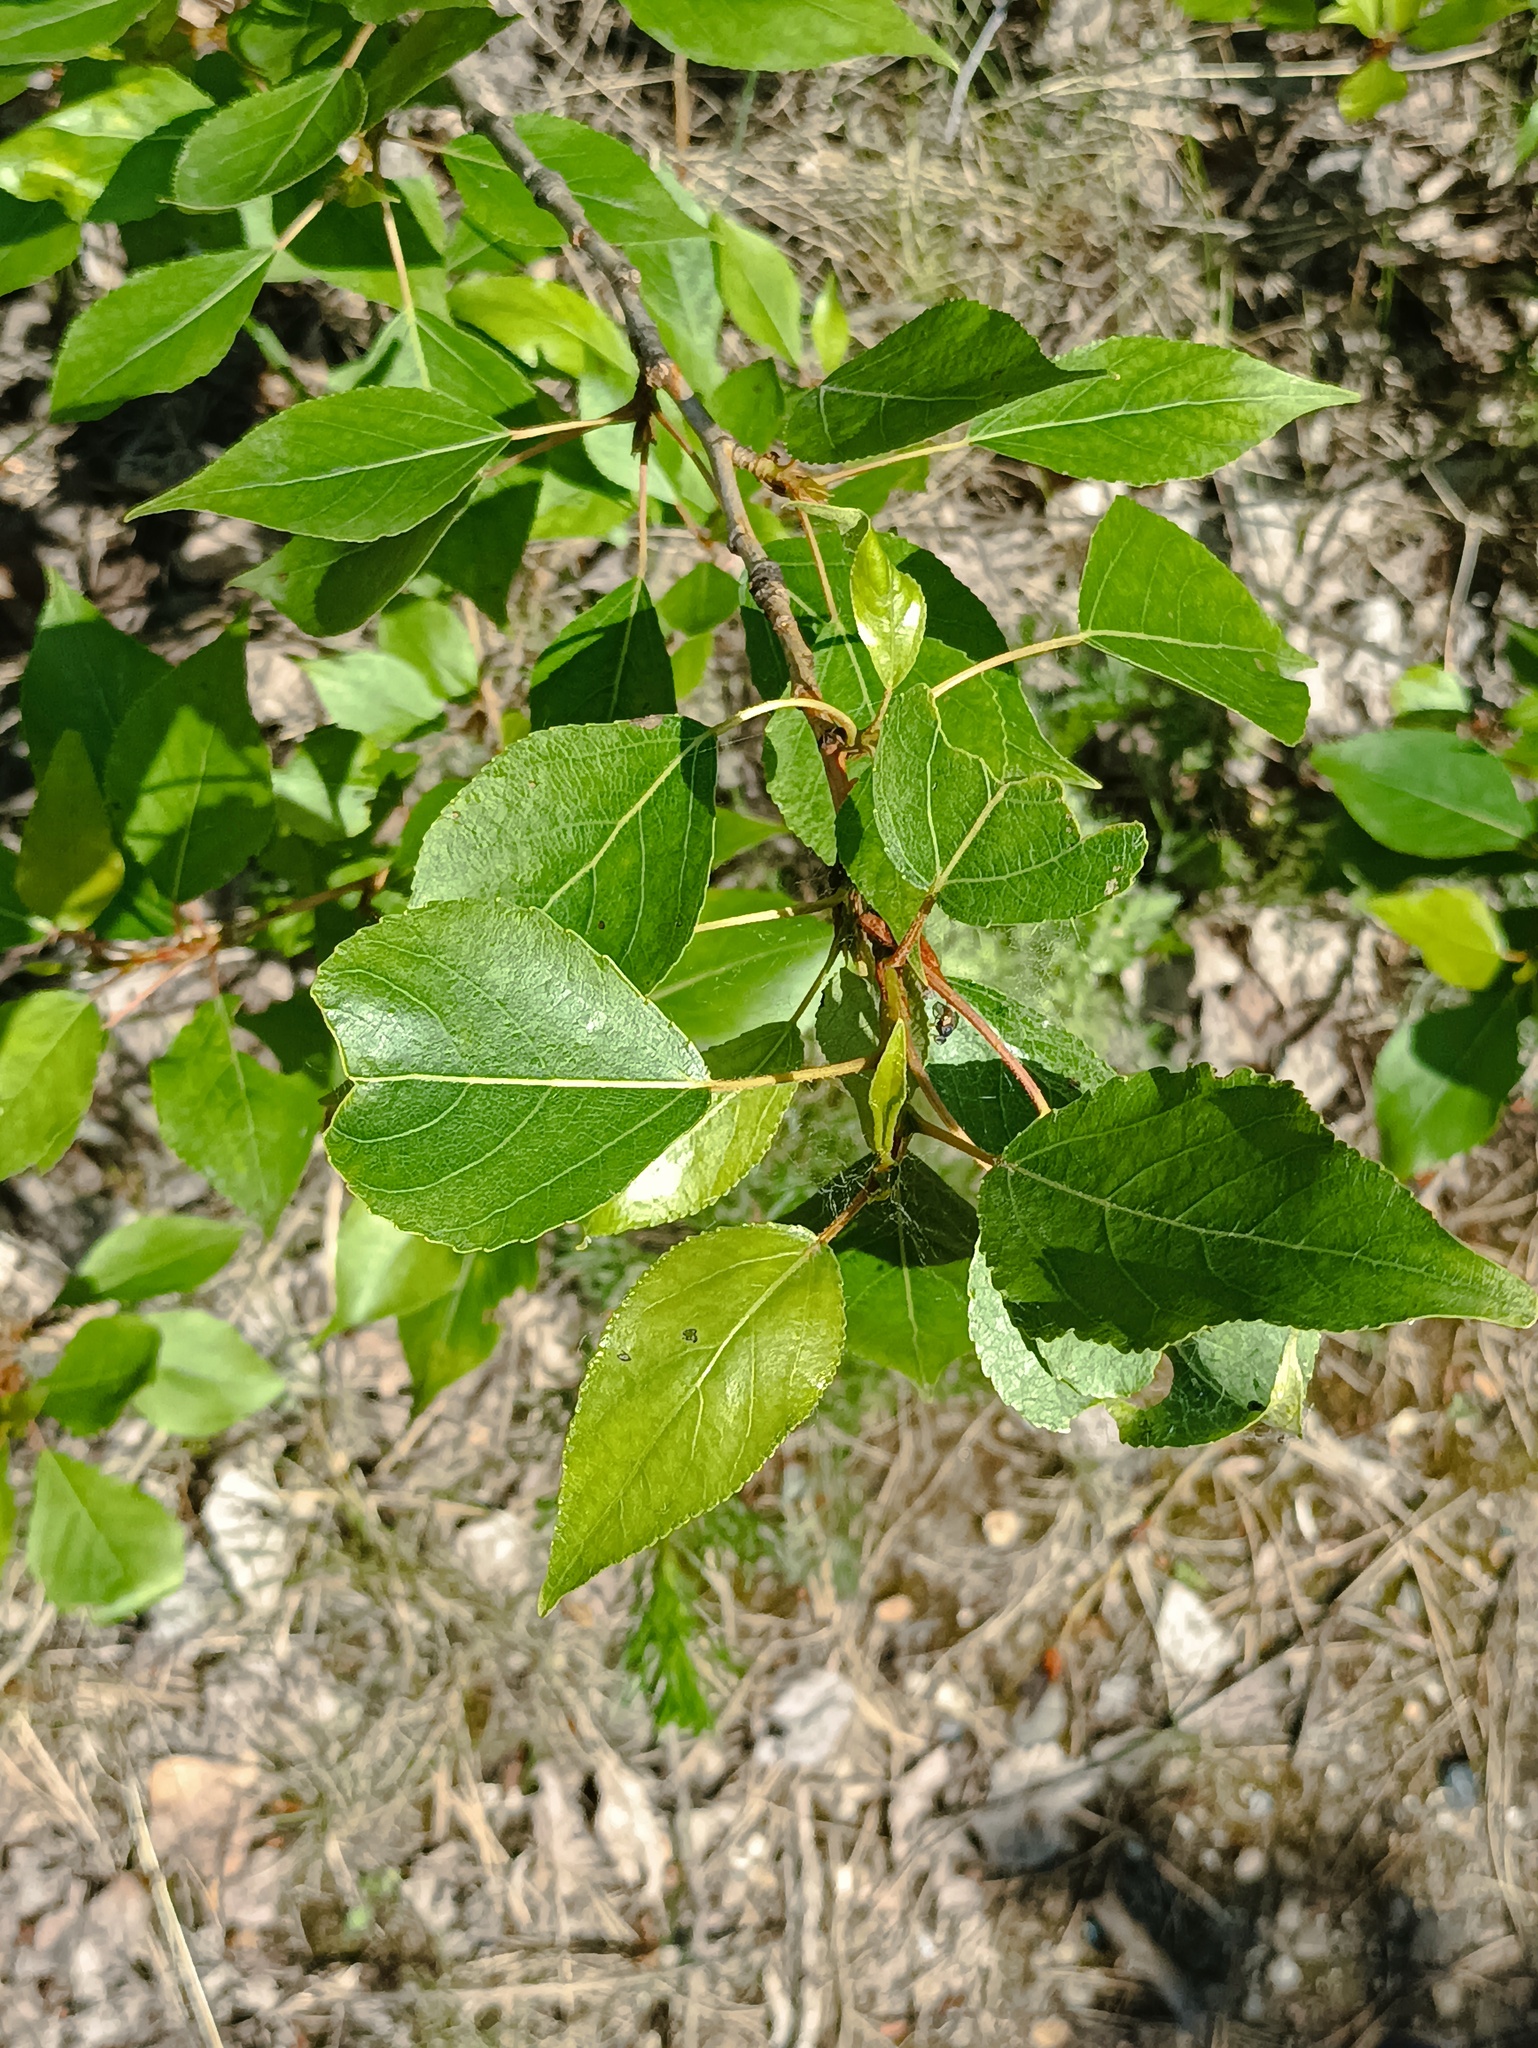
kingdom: Plantae
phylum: Tracheophyta
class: Magnoliopsida
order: Malpighiales
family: Salicaceae
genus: Populus
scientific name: Populus sibirica
